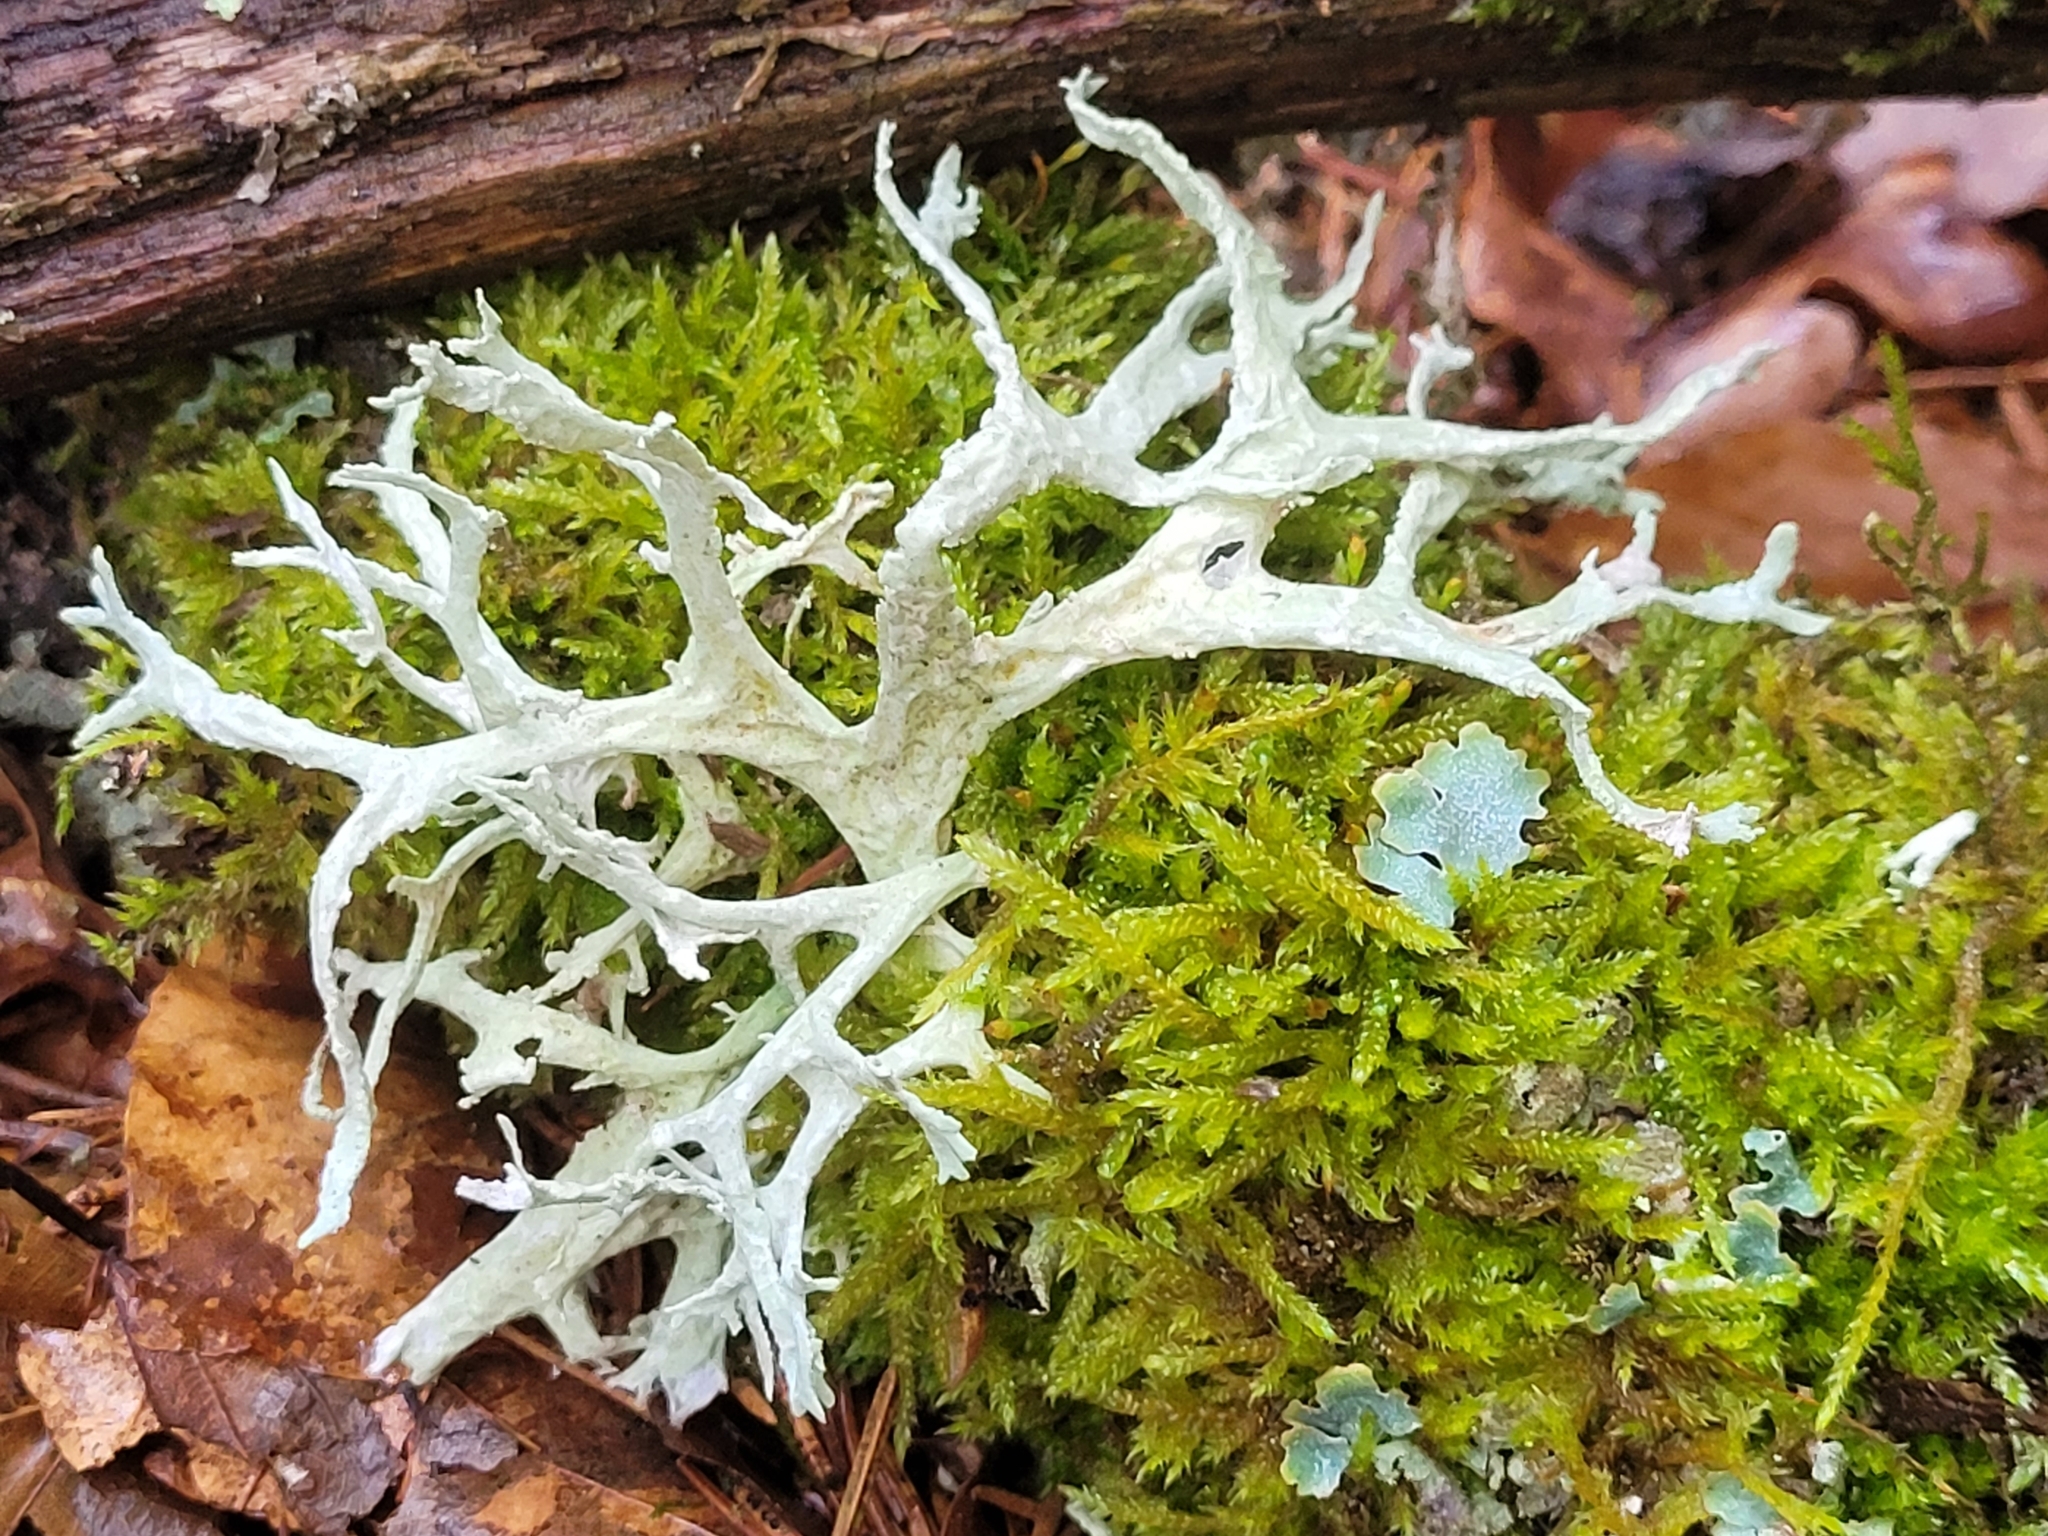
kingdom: Fungi
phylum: Ascomycota
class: Lecanoromycetes
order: Lecanorales
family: Parmeliaceae
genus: Evernia
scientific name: Evernia prunastri
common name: Oak moss
